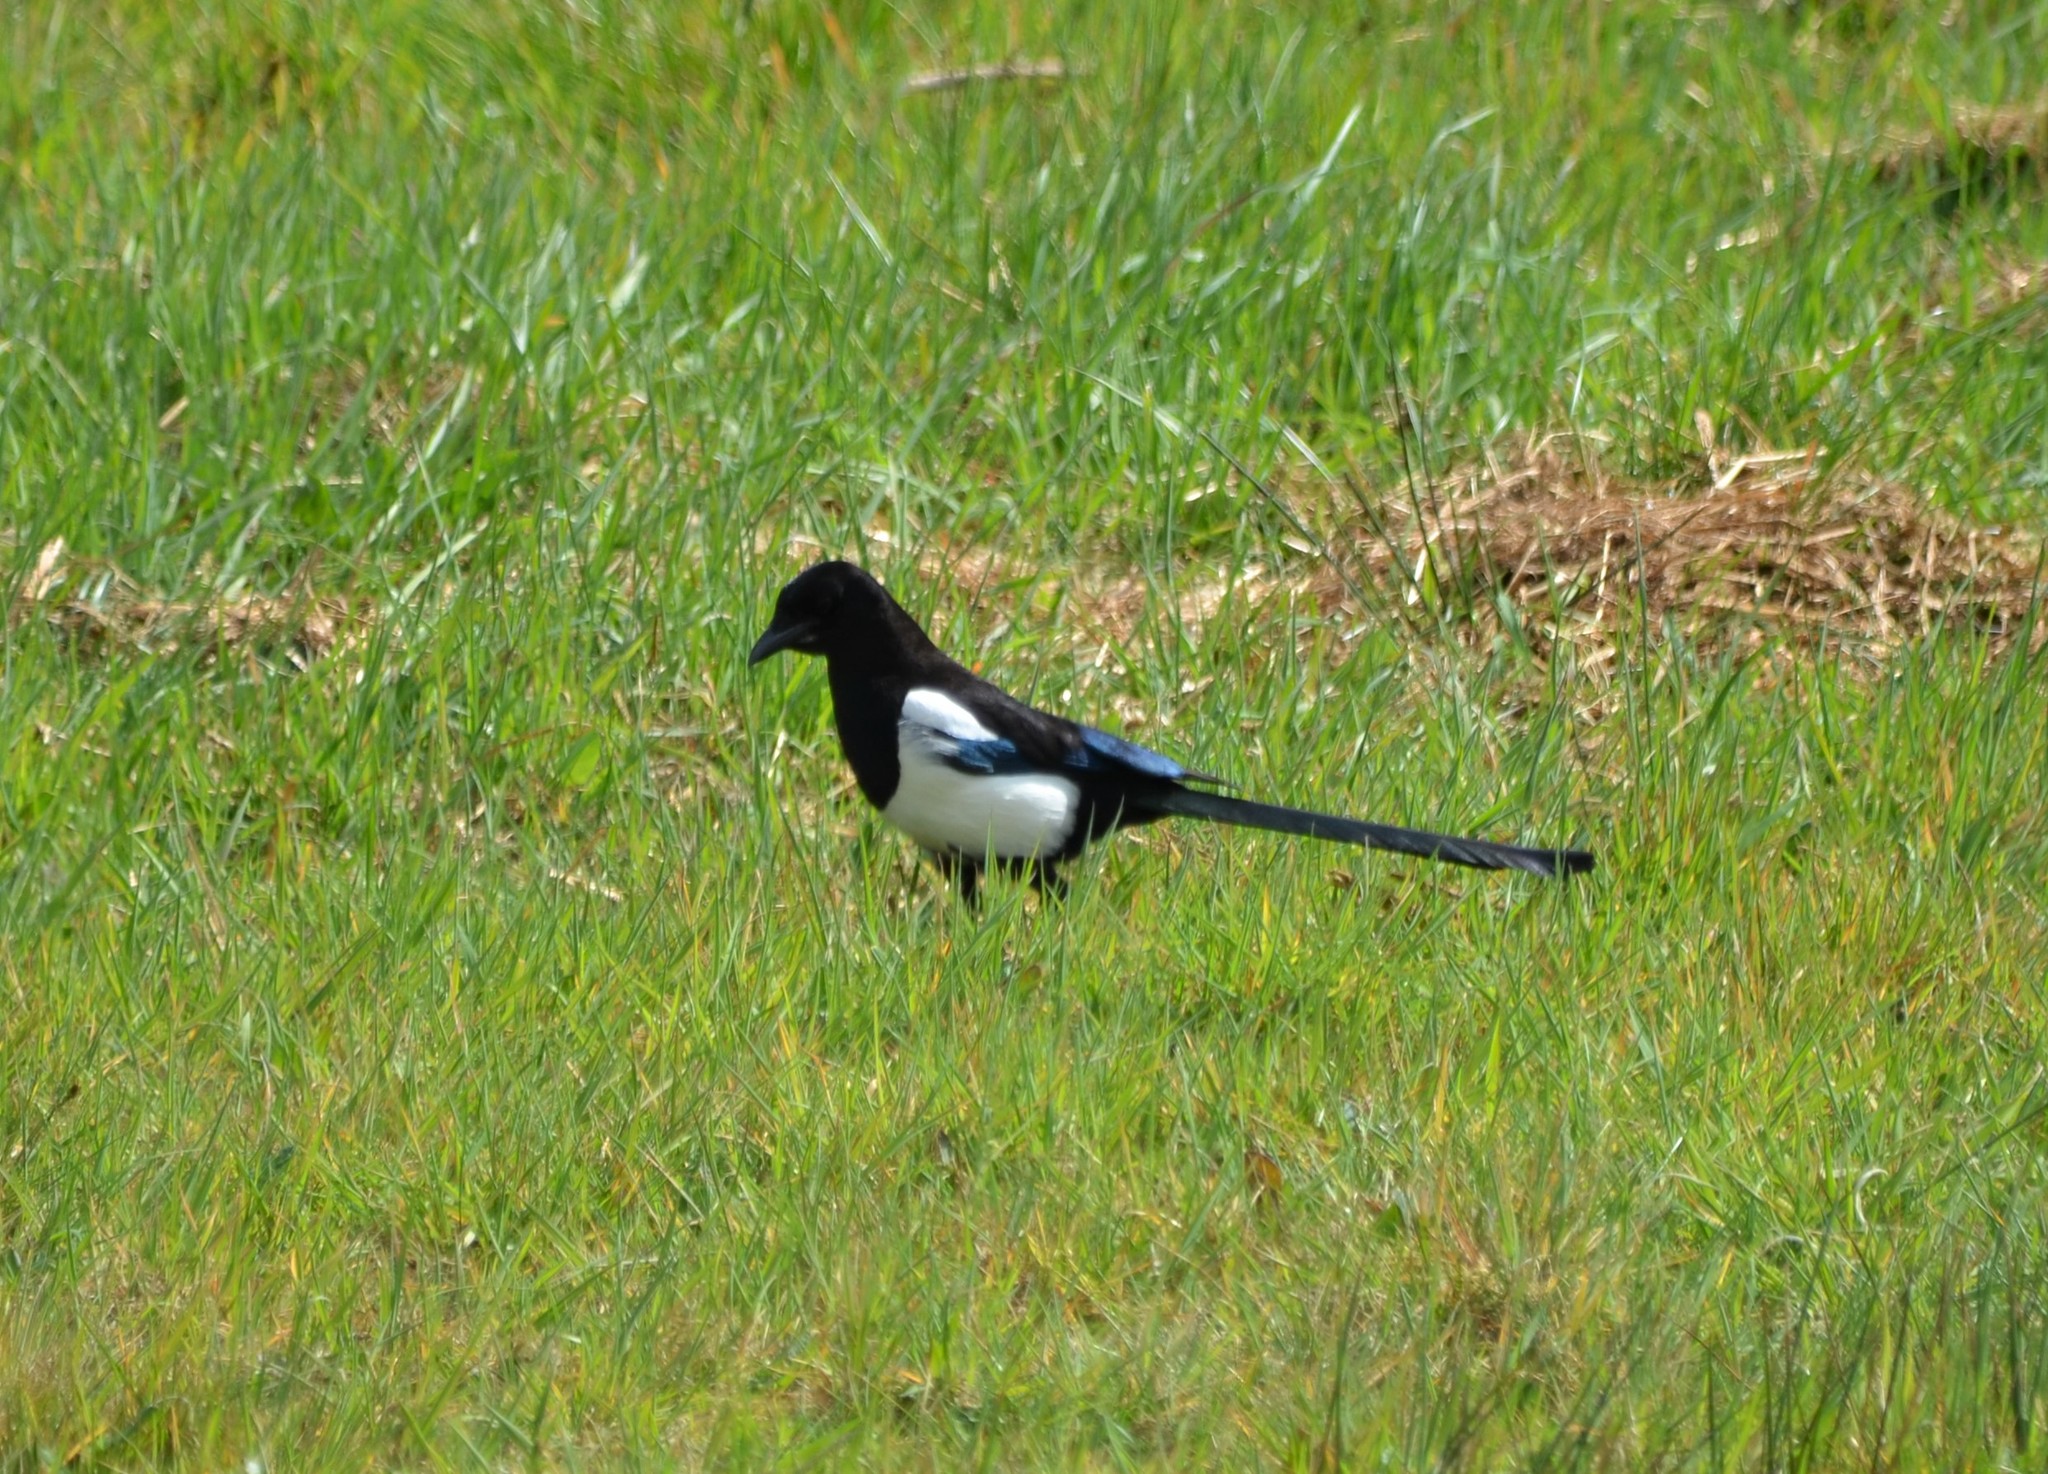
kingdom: Animalia
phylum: Chordata
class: Aves
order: Passeriformes
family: Corvidae
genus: Pica
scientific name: Pica pica
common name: Eurasian magpie
